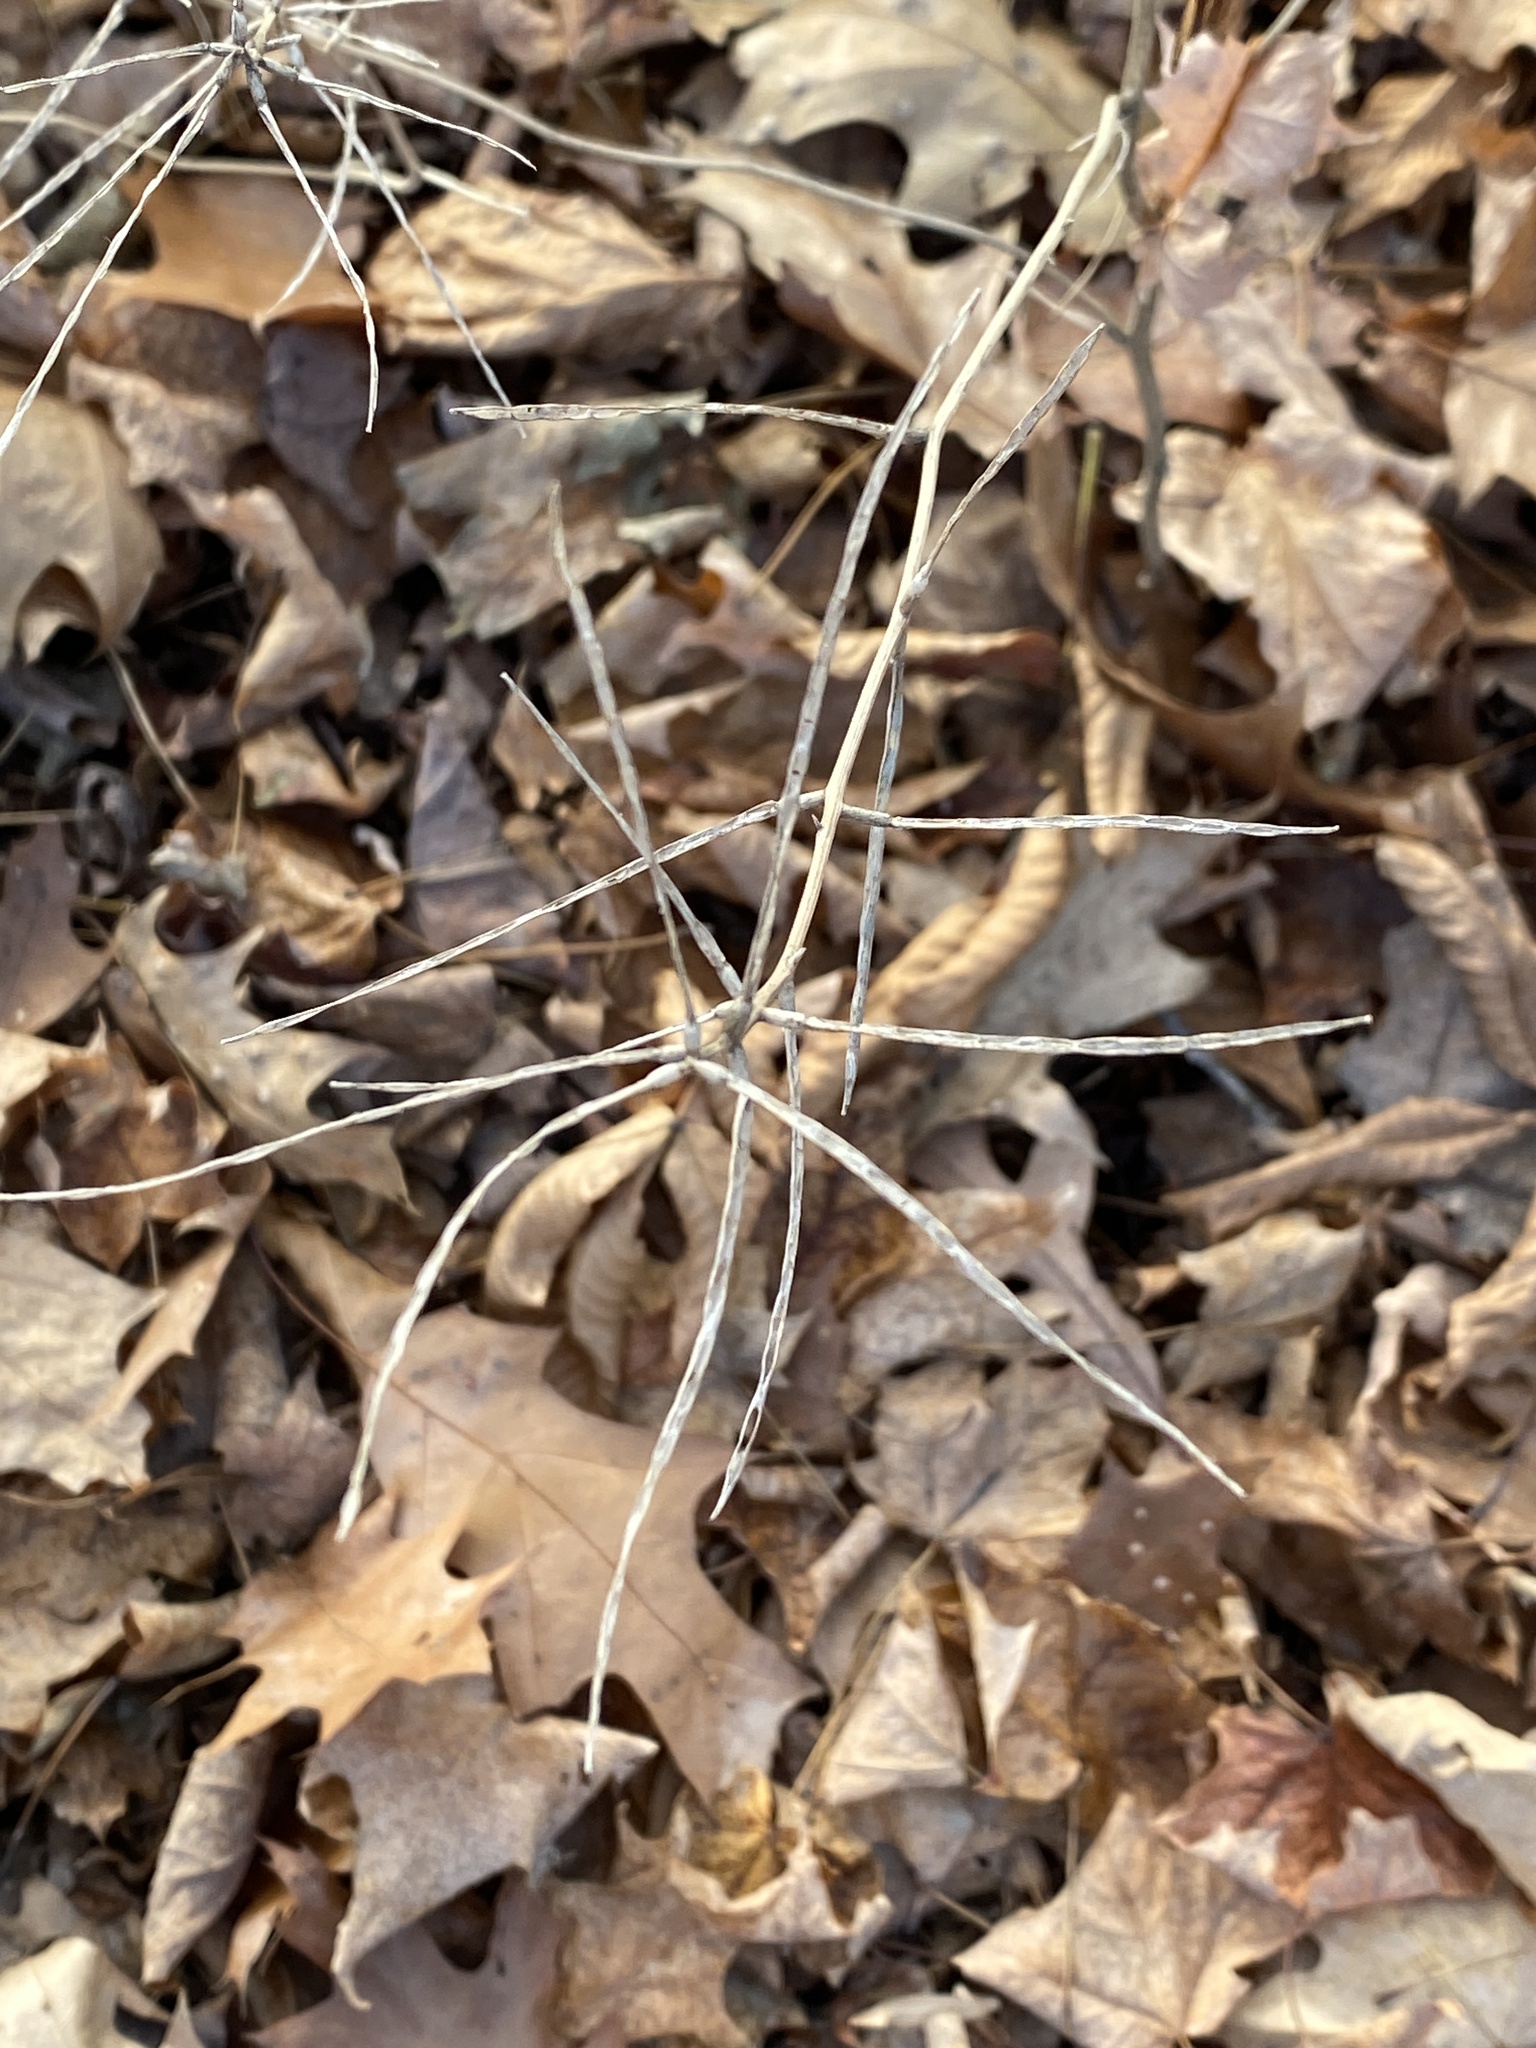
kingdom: Plantae
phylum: Tracheophyta
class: Magnoliopsida
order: Brassicales
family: Brassicaceae
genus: Alliaria
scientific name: Alliaria petiolata
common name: Garlic mustard
